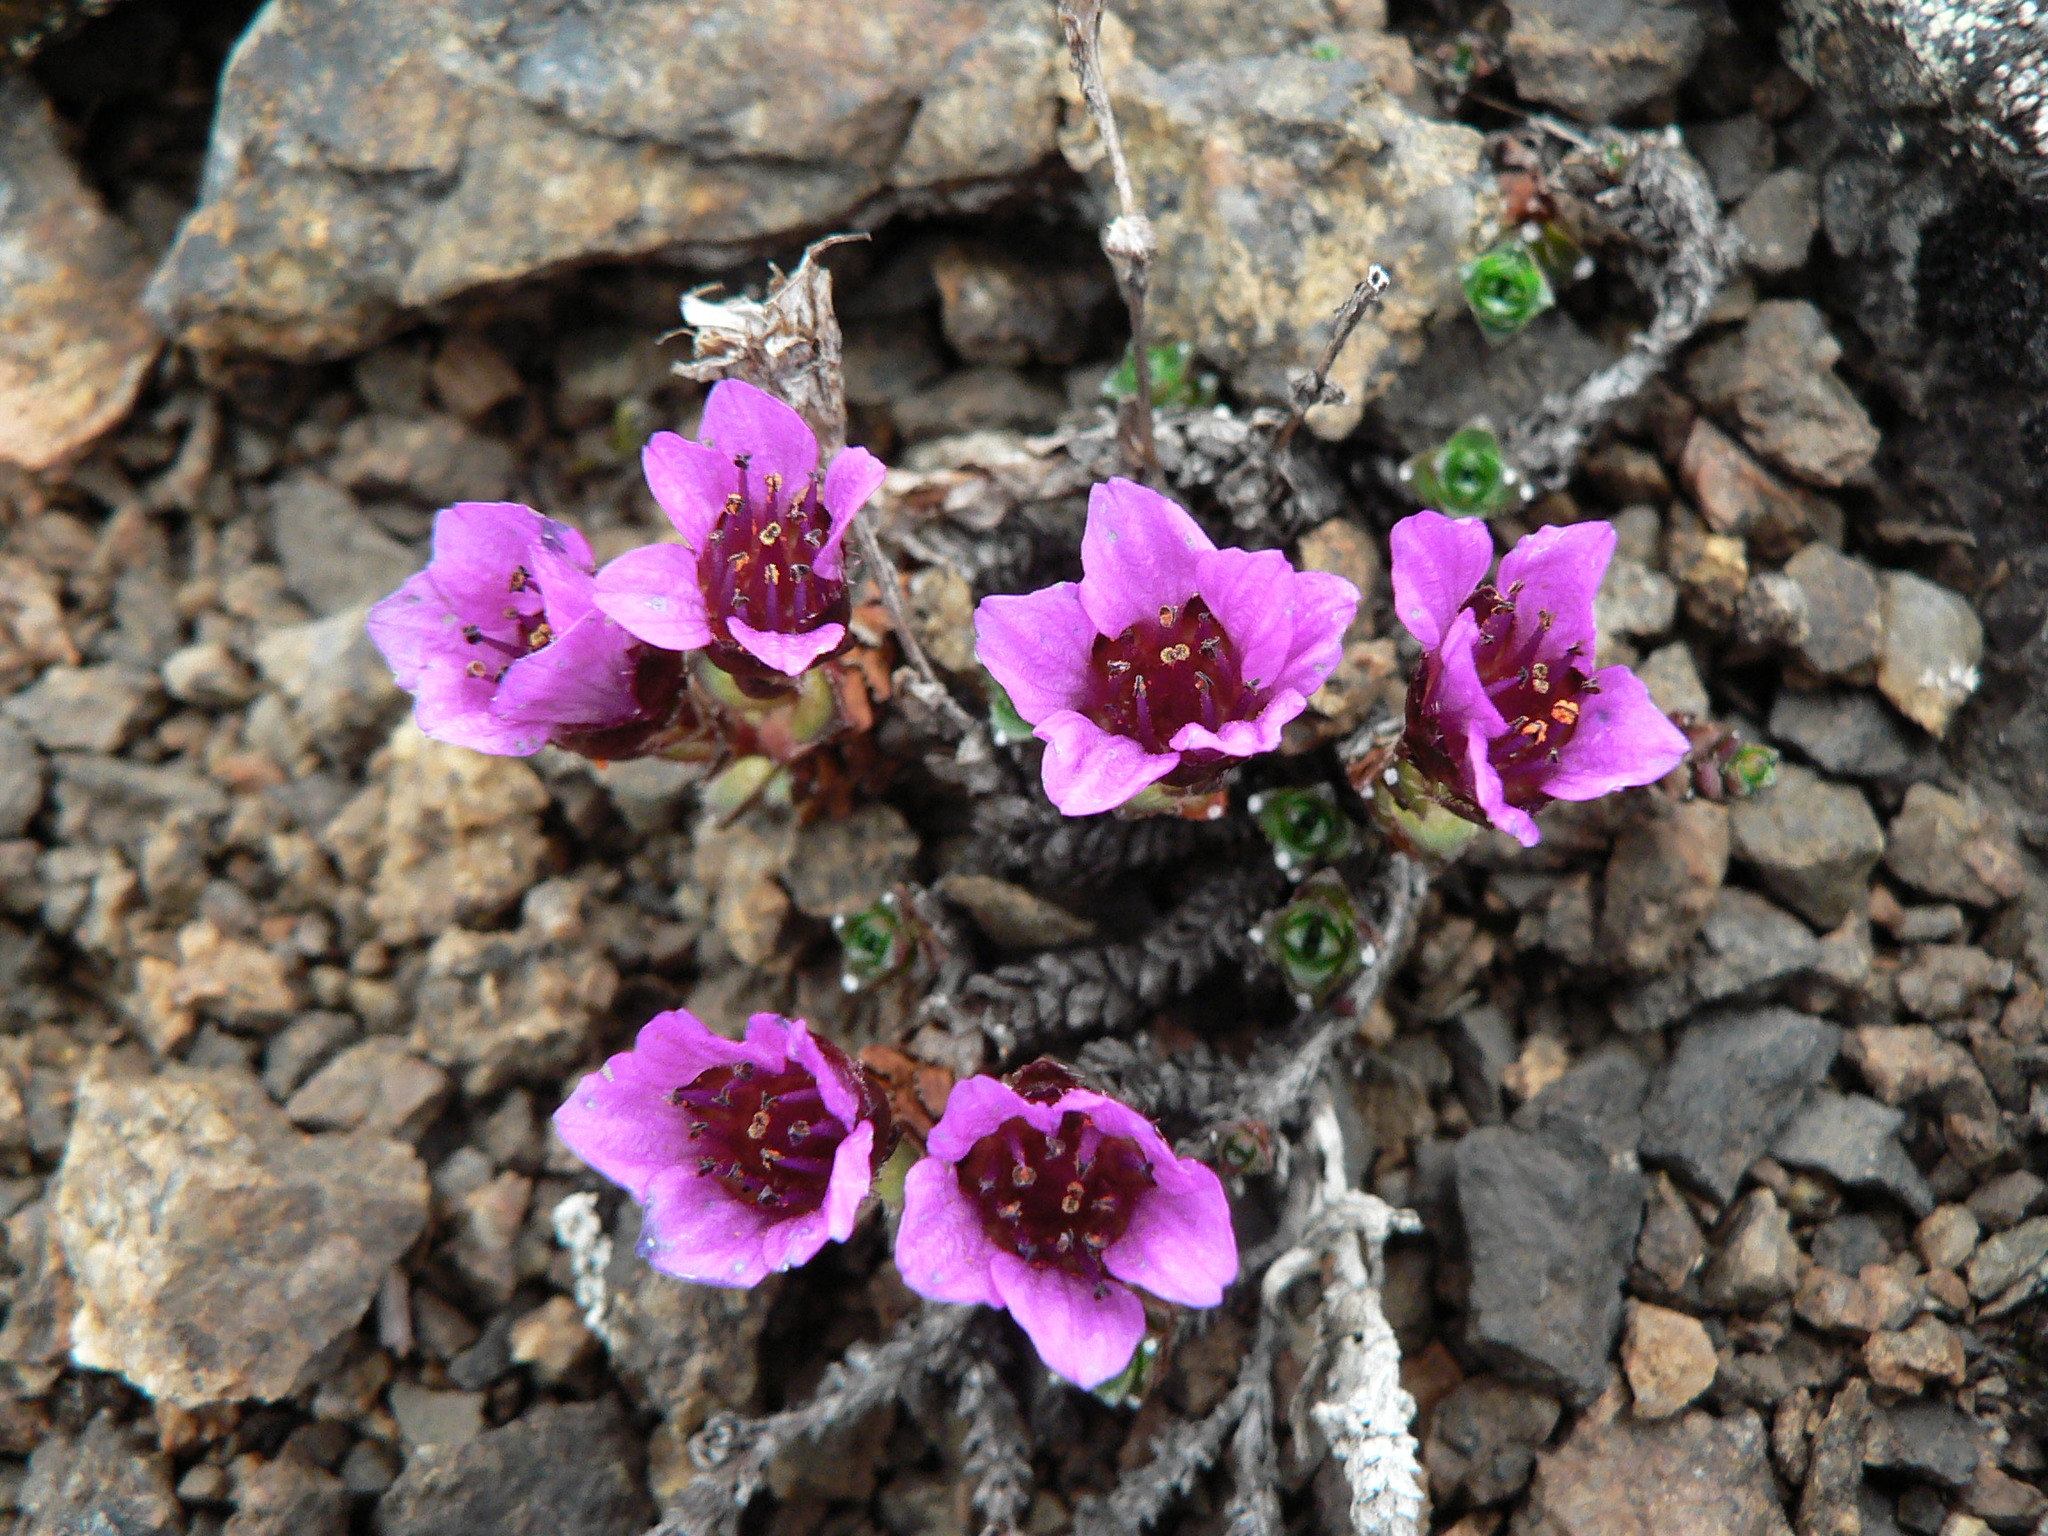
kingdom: Plantae
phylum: Tracheophyta
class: Magnoliopsida
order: Saxifragales
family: Saxifragaceae
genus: Saxifraga
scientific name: Saxifraga oppositifolia
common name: Purple saxifrage
